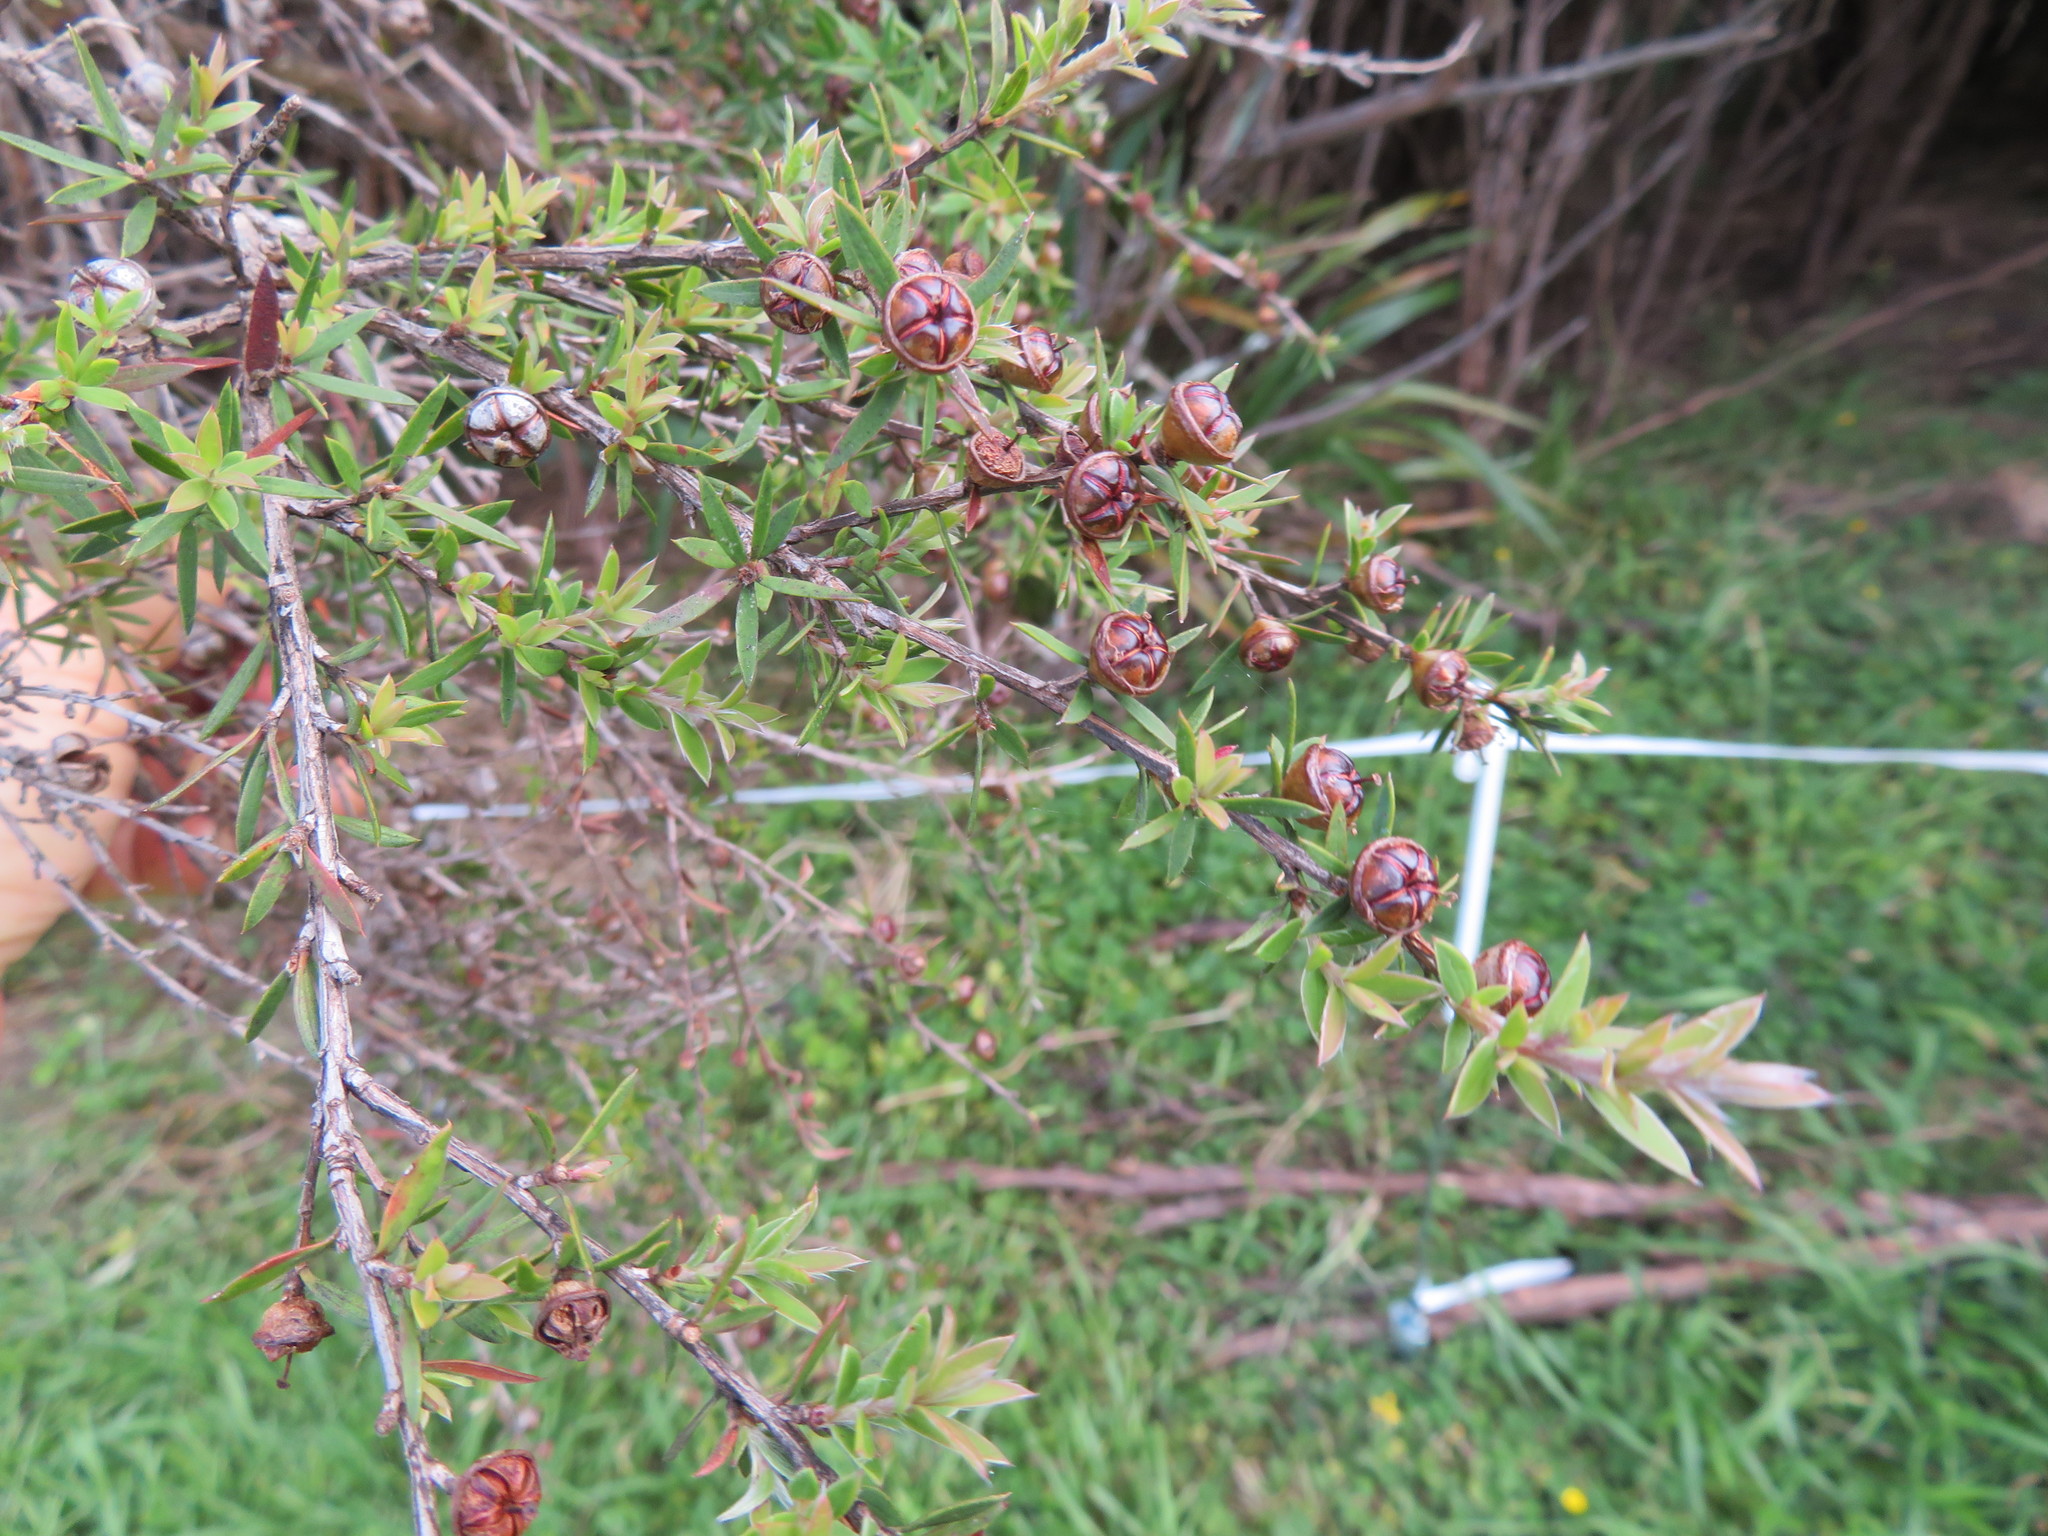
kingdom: Plantae
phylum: Tracheophyta
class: Magnoliopsida
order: Myrtales
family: Myrtaceae
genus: Leptospermum
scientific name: Leptospermum scoparium
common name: Broom tea-tree
